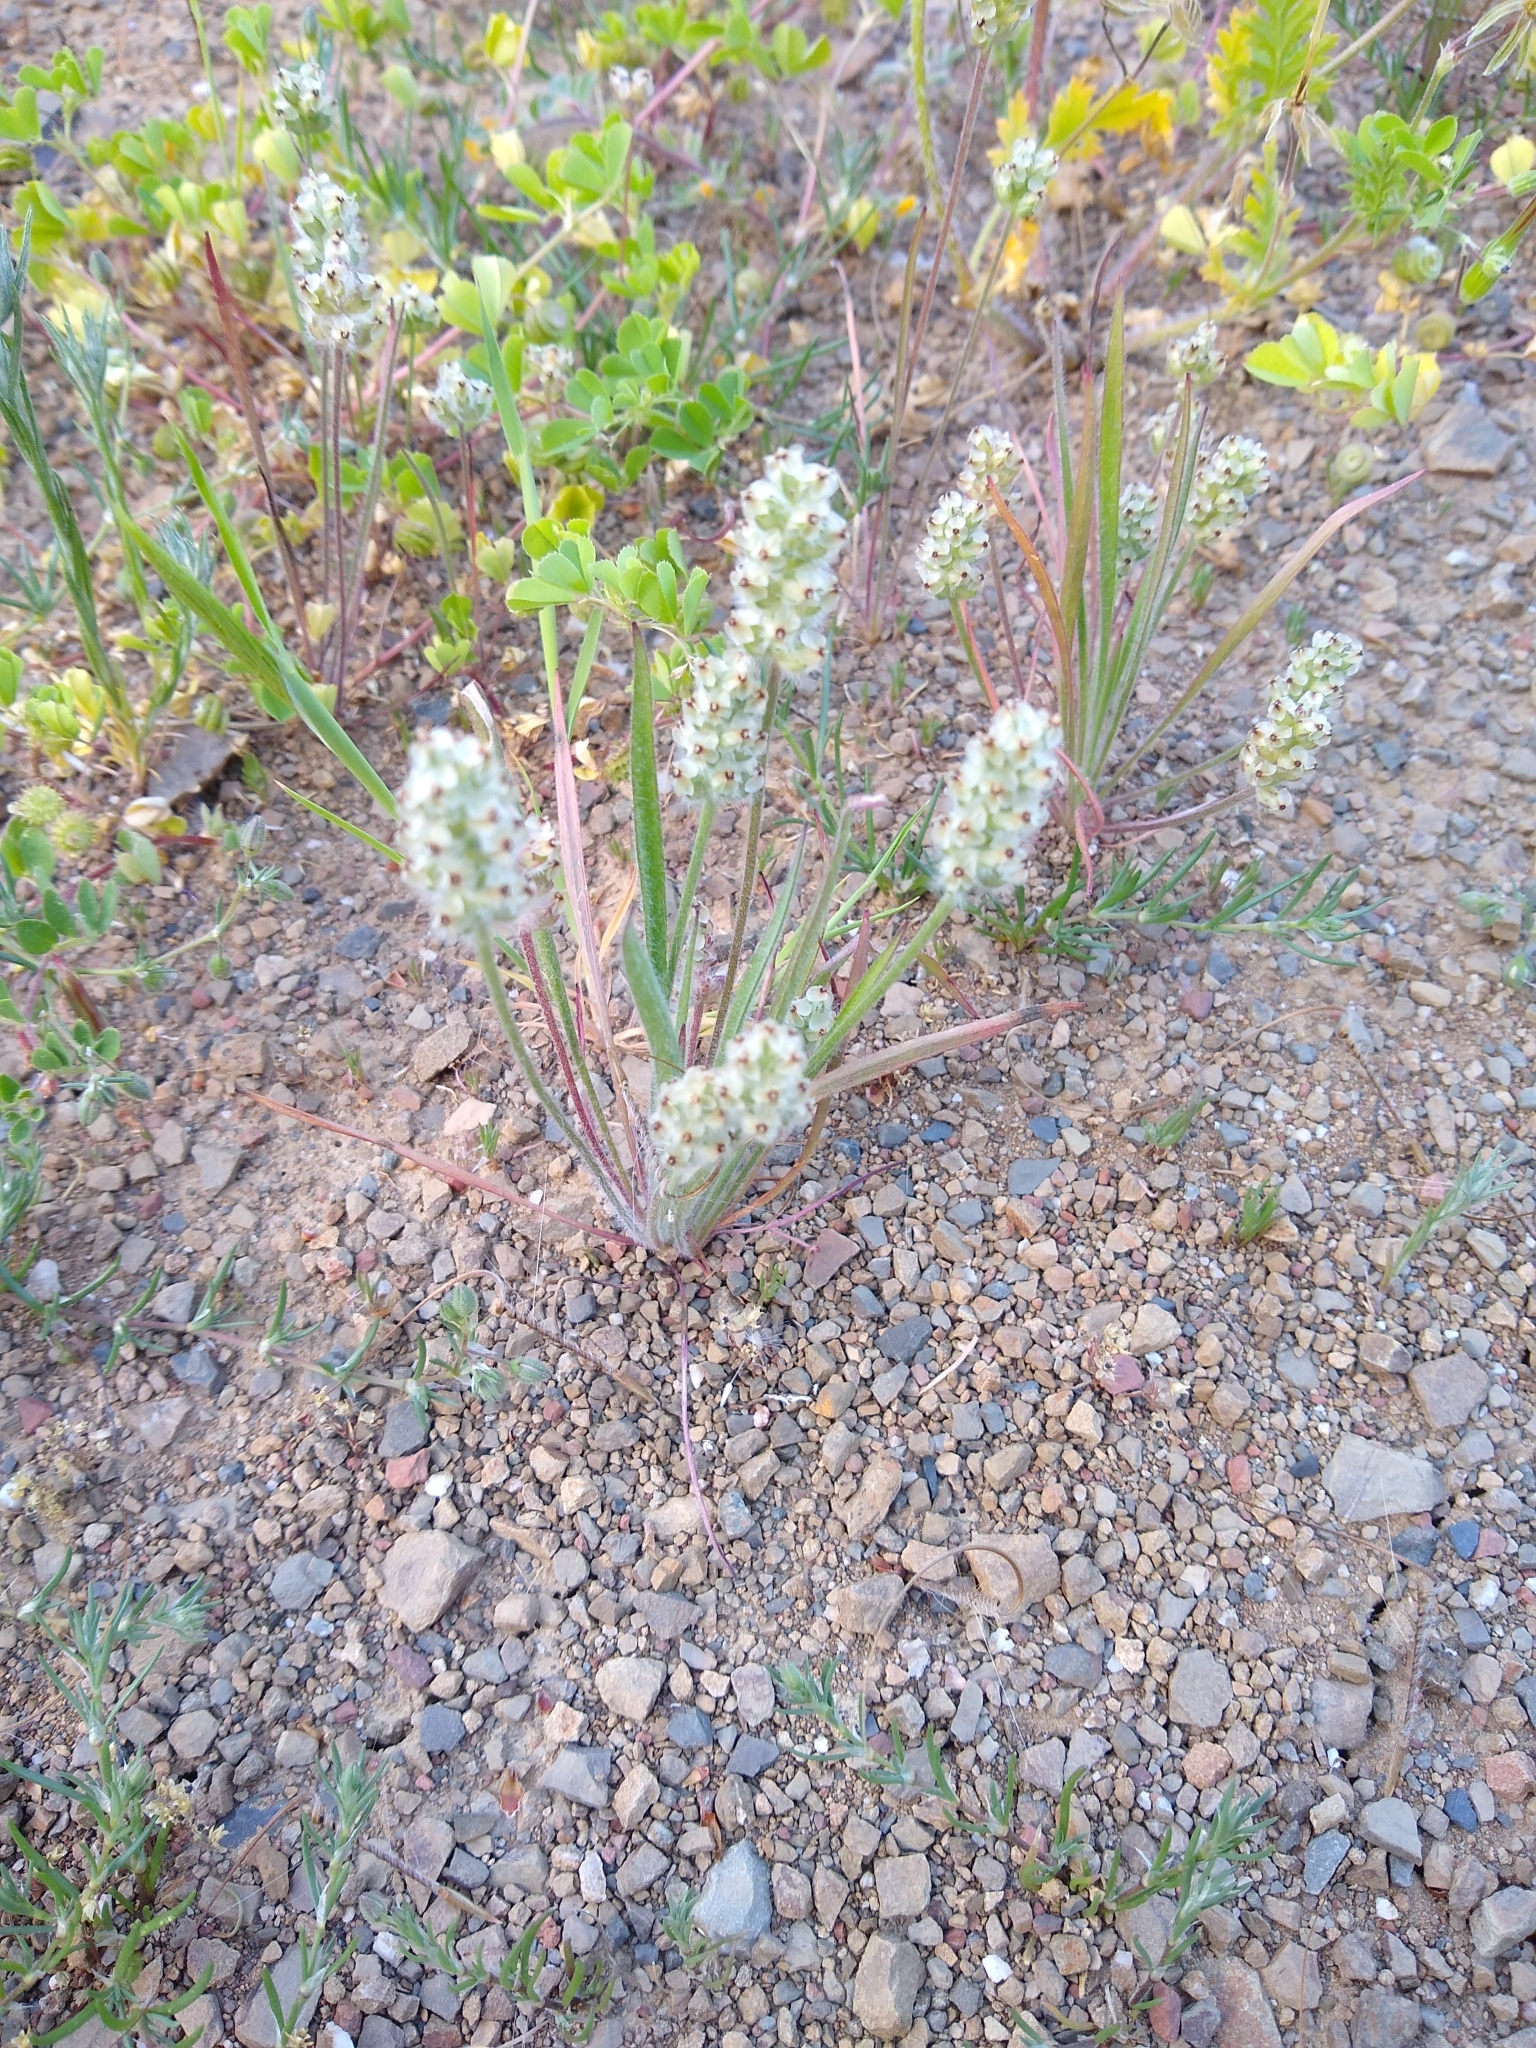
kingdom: Plantae
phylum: Tracheophyta
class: Magnoliopsida
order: Lamiales
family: Plantaginaceae
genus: Plantago
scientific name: Plantago erecta
